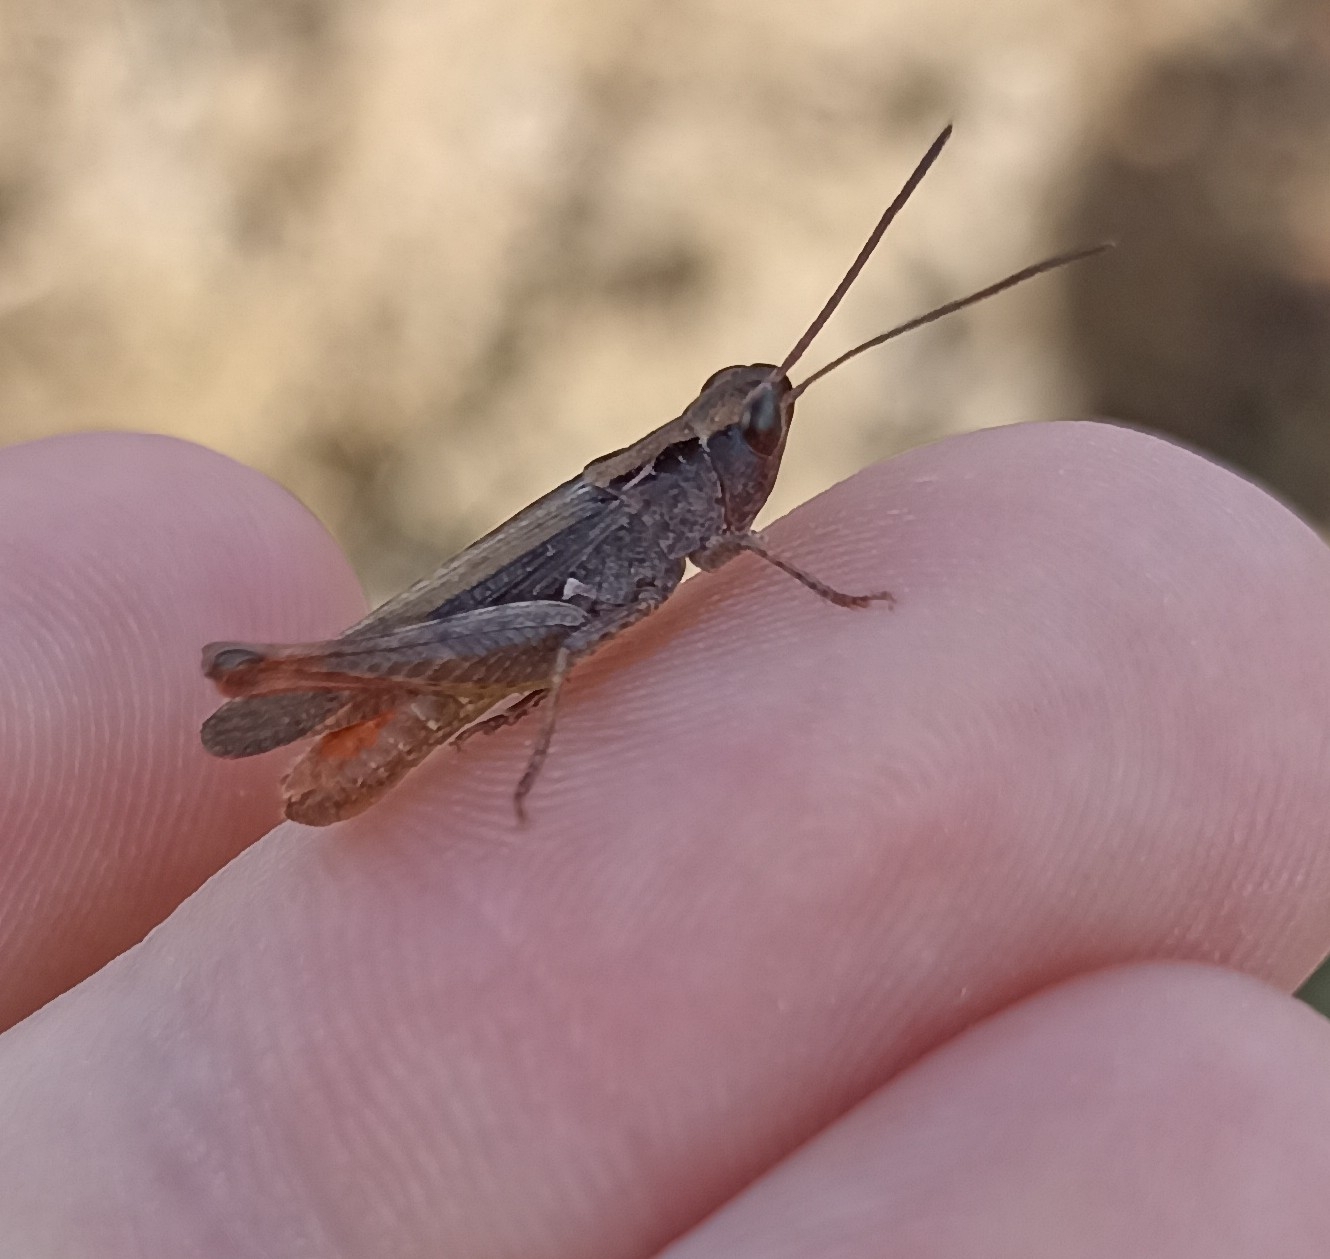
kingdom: Animalia
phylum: Arthropoda
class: Insecta
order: Orthoptera
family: Acrididae
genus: Chorthippus
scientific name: Chorthippus vagans
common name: Heath grasshopper
